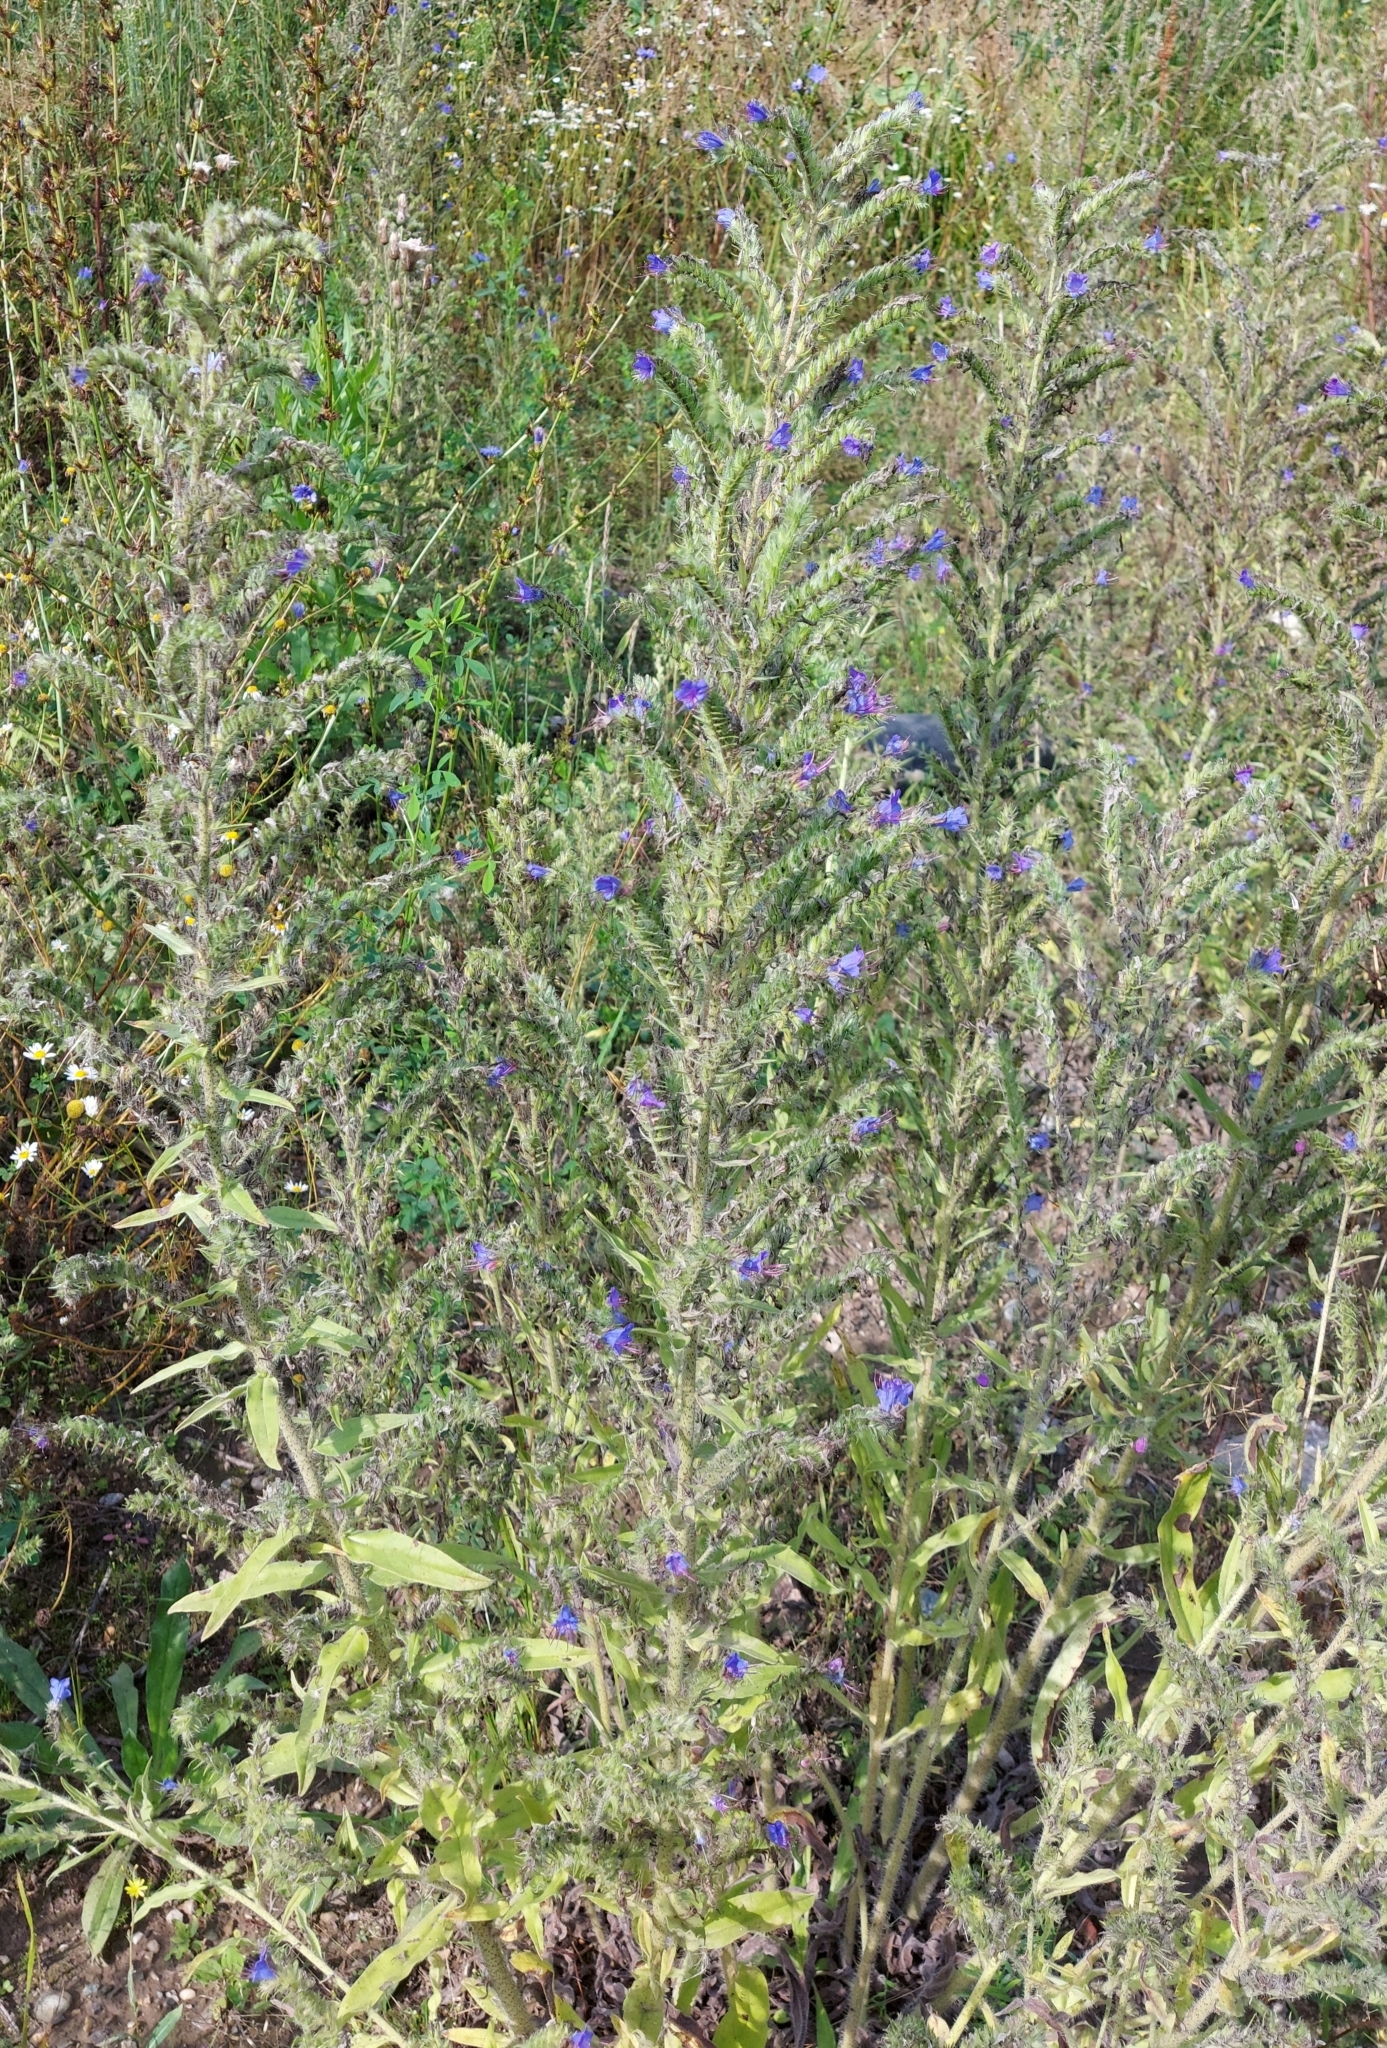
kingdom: Plantae
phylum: Tracheophyta
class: Magnoliopsida
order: Boraginales
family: Boraginaceae
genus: Echium
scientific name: Echium vulgare
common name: Common viper's bugloss
